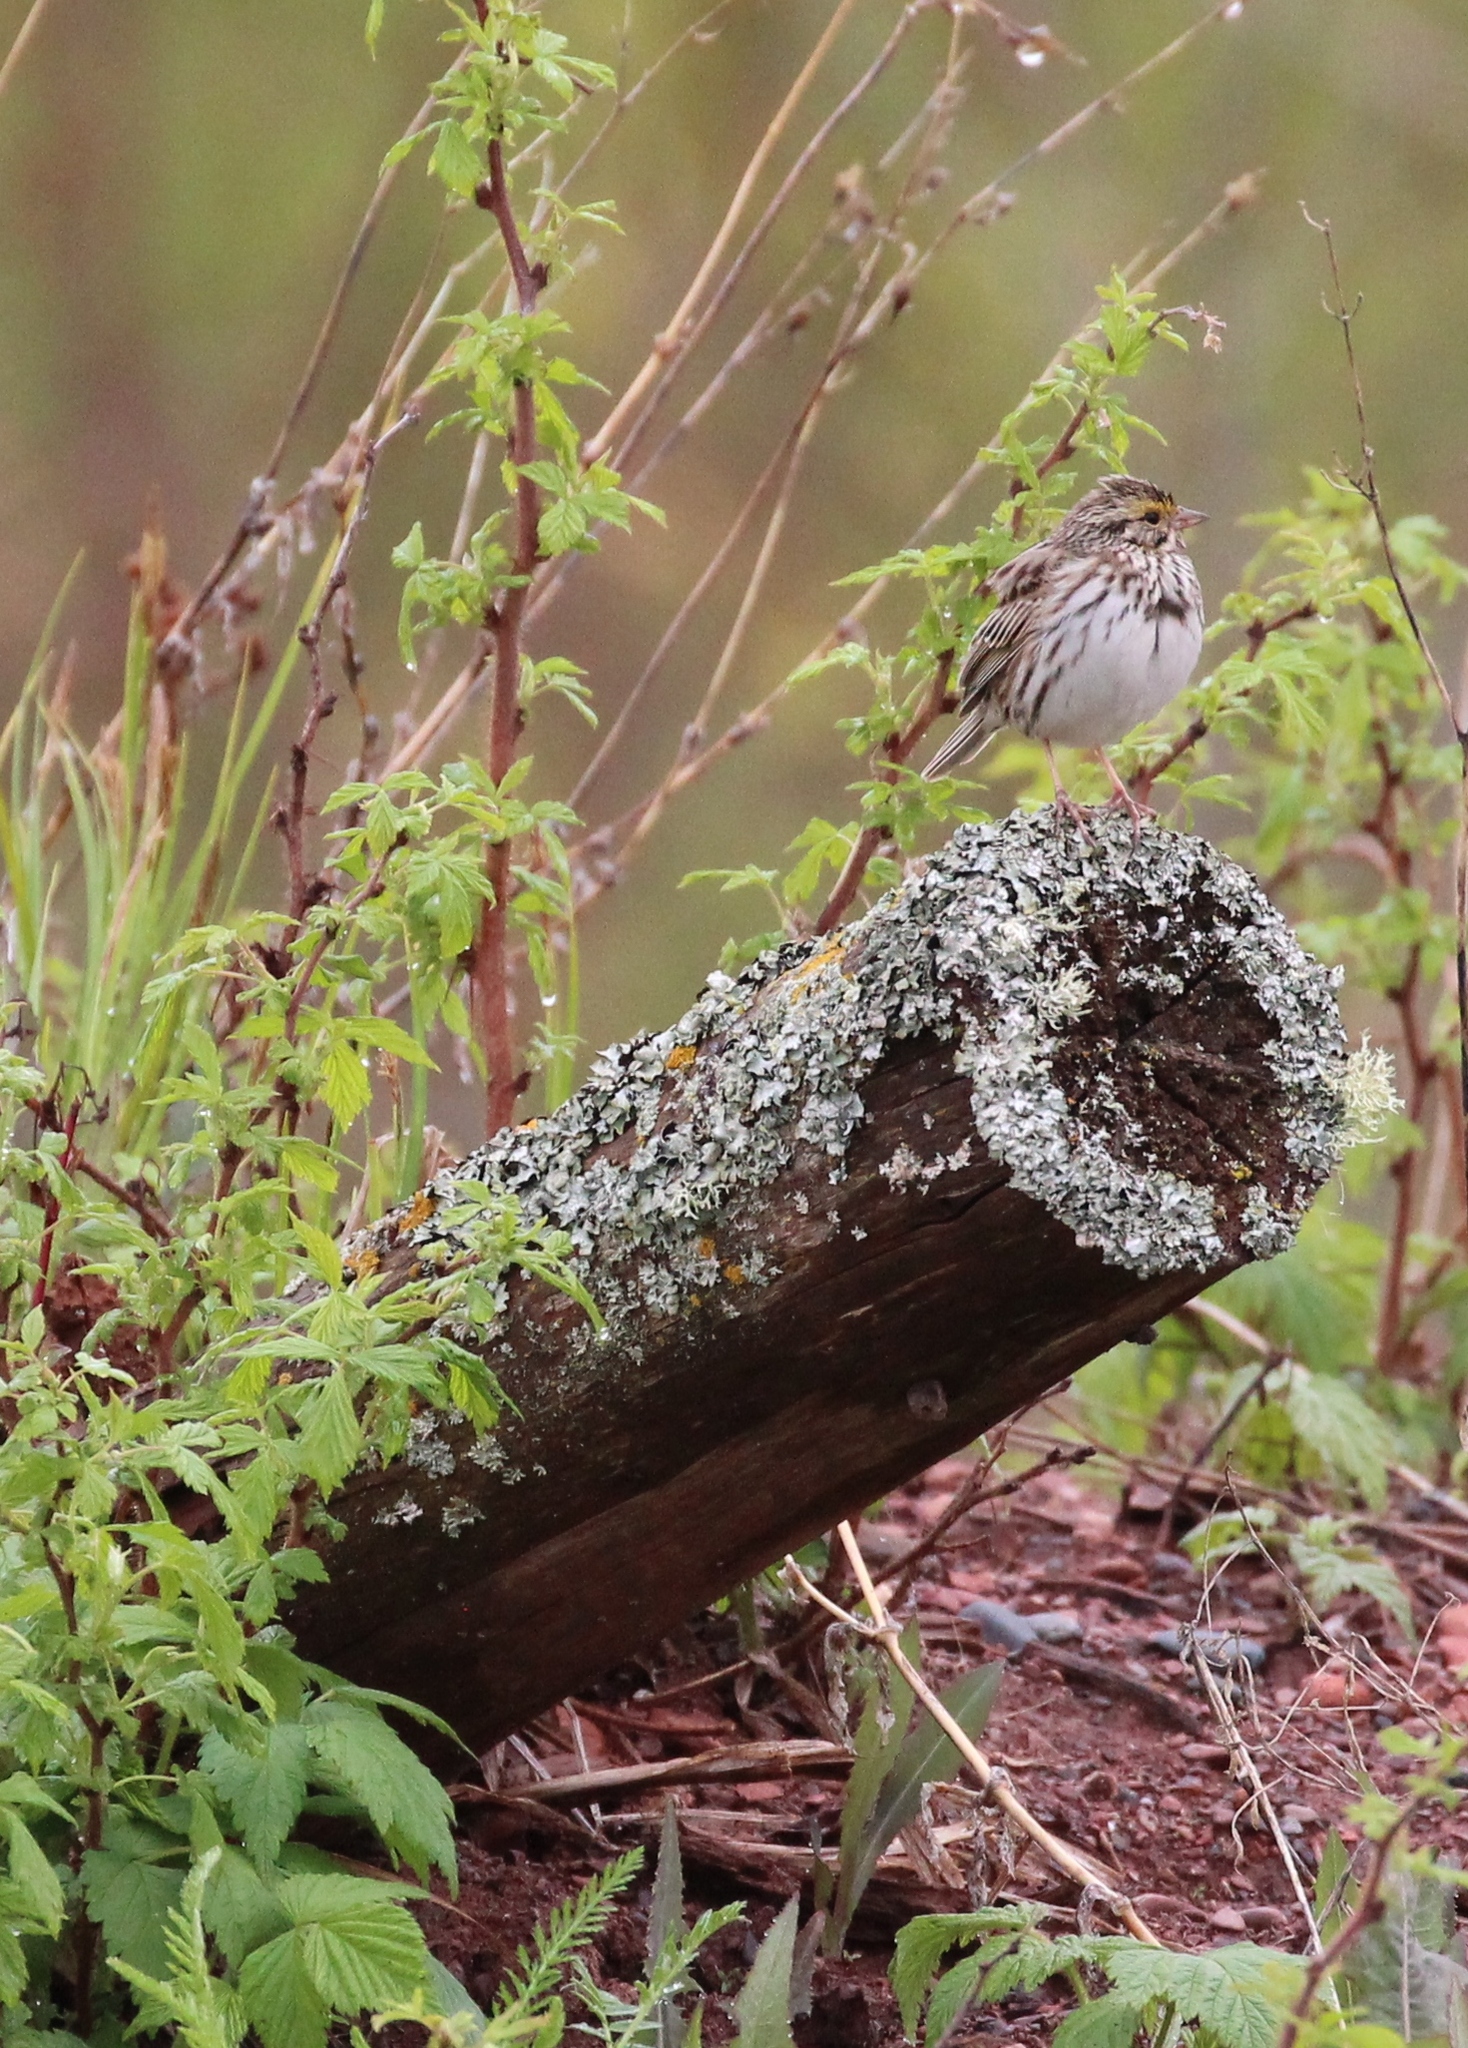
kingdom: Animalia
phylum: Chordata
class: Aves
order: Passeriformes
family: Passerellidae
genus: Passerculus
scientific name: Passerculus sandwichensis
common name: Savannah sparrow
